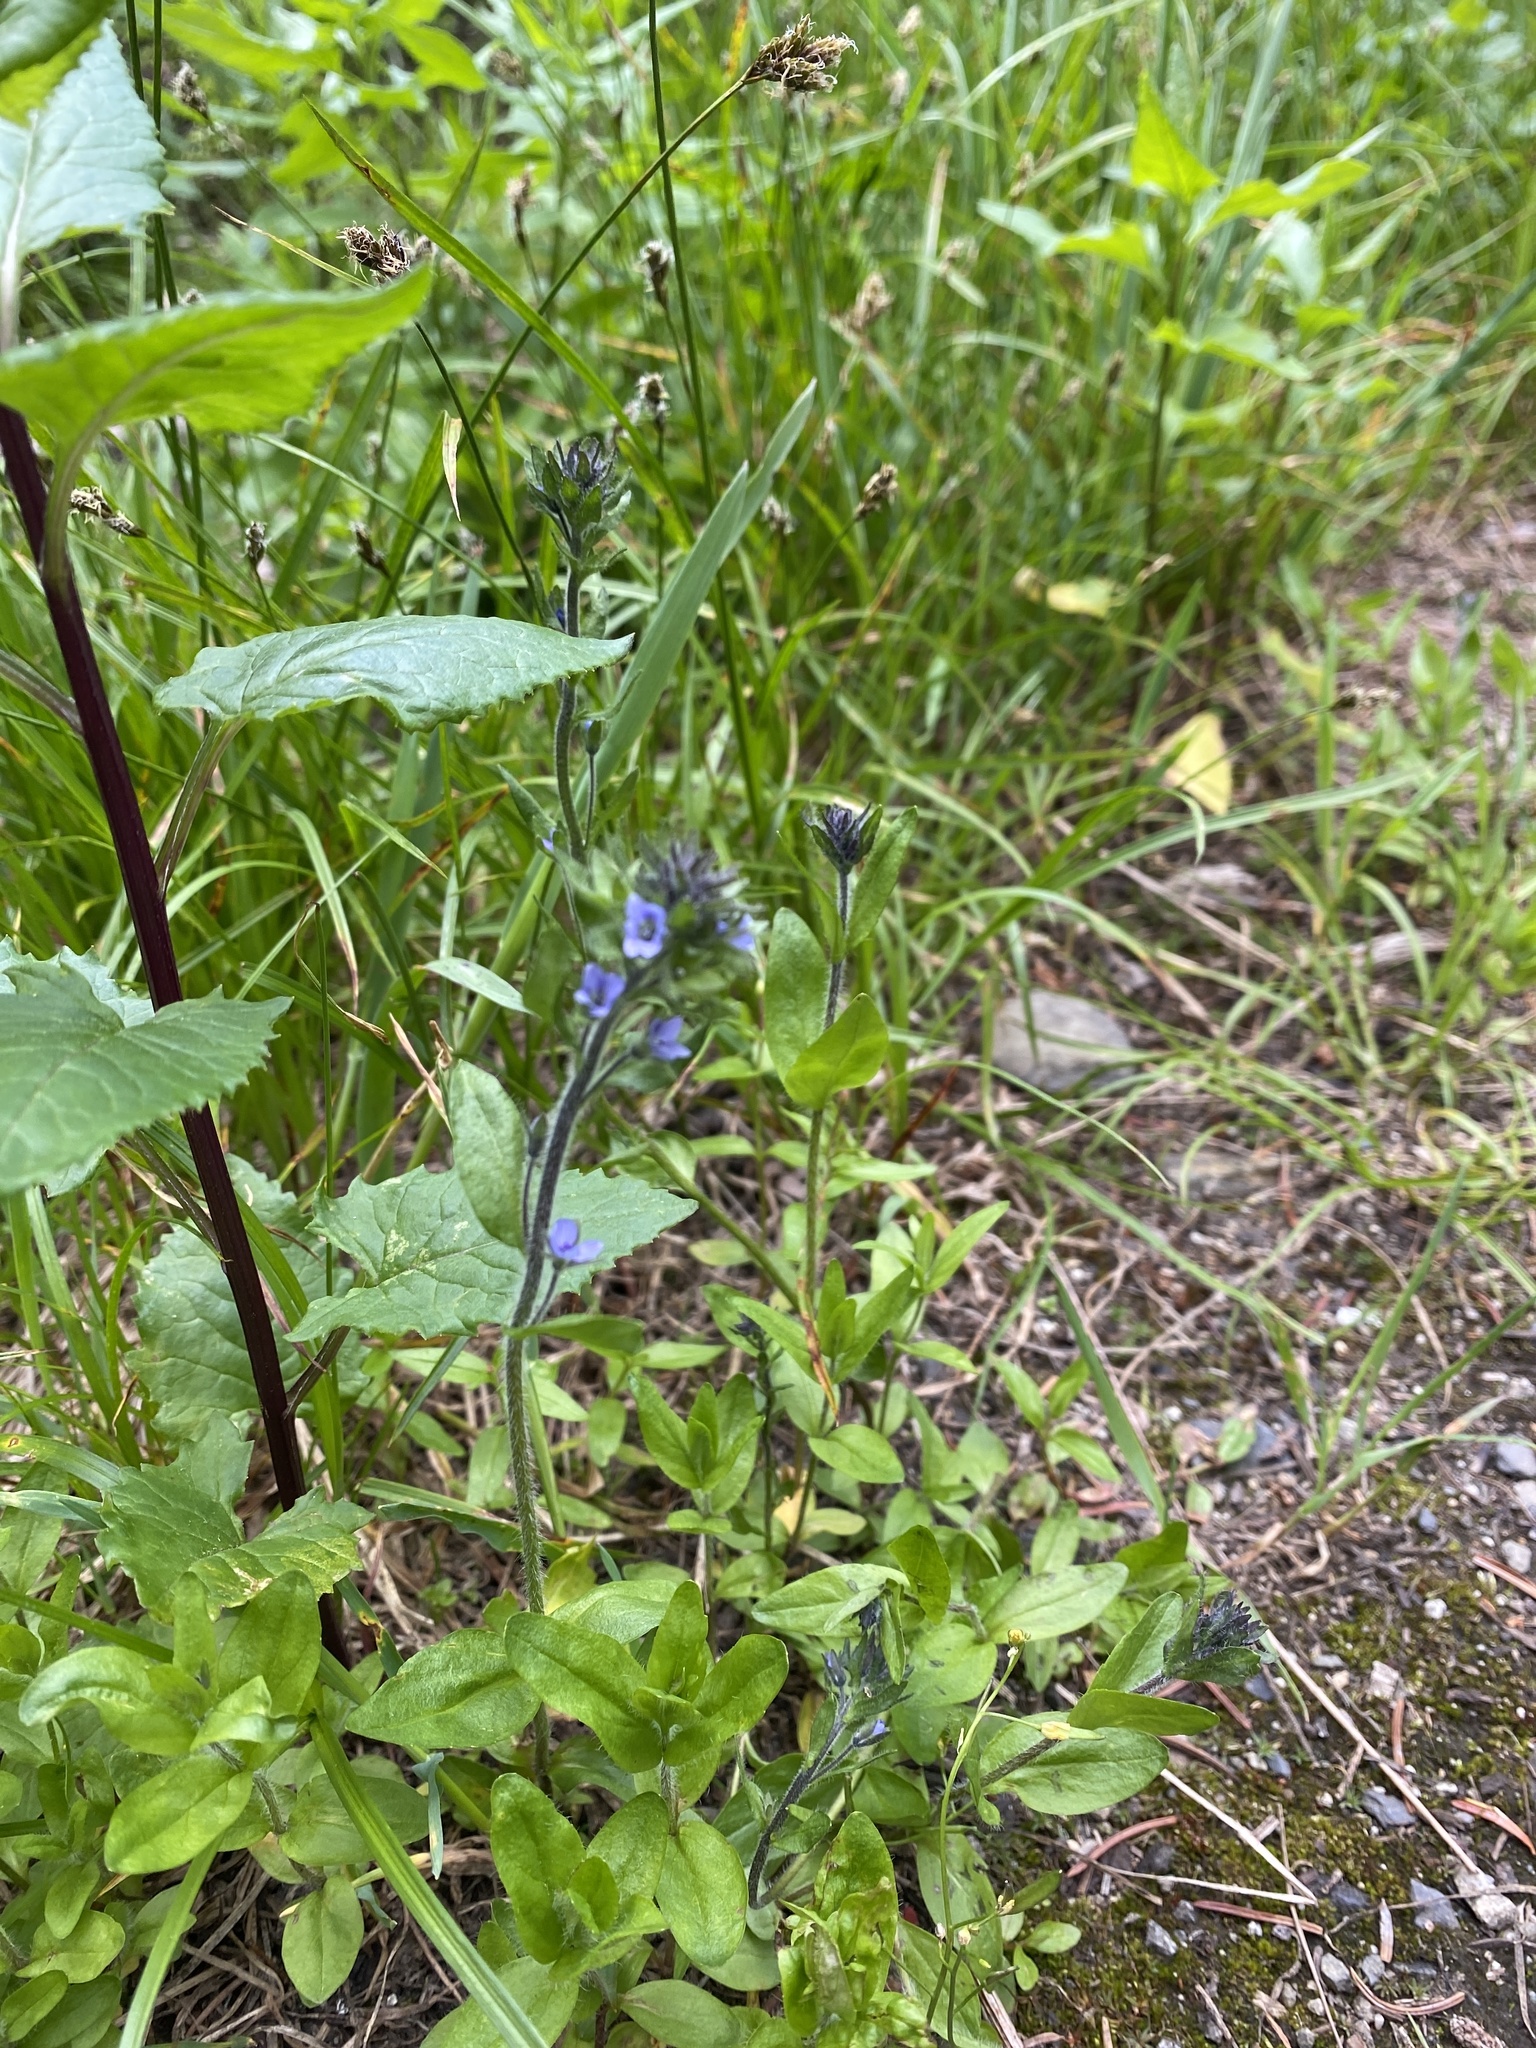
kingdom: Plantae
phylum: Tracheophyta
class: Magnoliopsida
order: Lamiales
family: Plantaginaceae
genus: Veronica
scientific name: Veronica wormskjoldii
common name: American alpine speedwell
